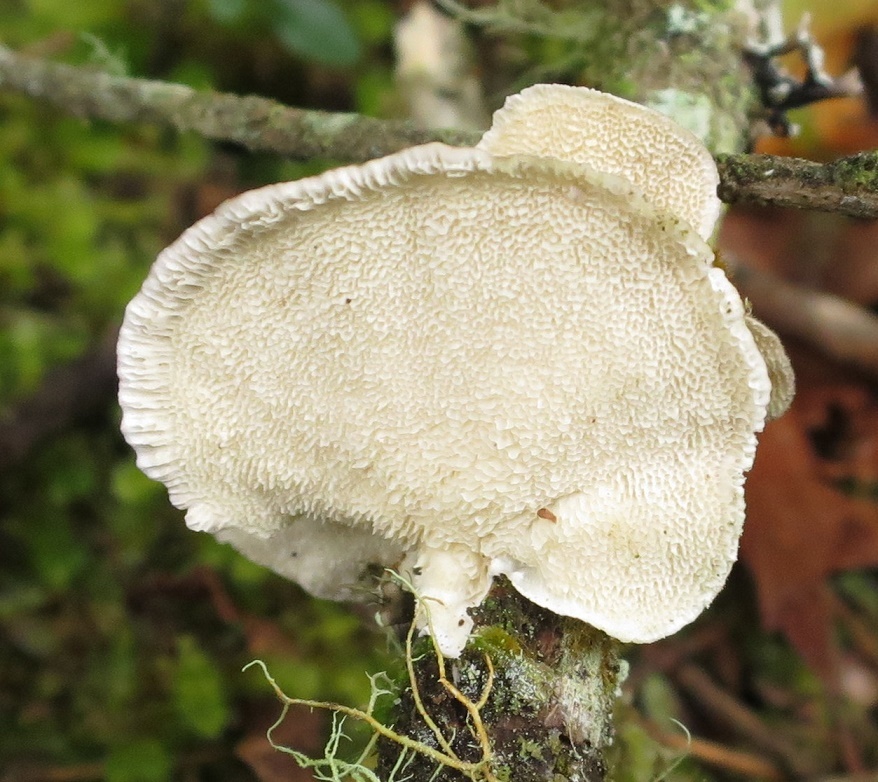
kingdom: Fungi
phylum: Basidiomycota
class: Agaricomycetes
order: Polyporales
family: Polyporaceae
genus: Trametes
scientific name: Trametes hirsuta
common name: Hairy bracket
